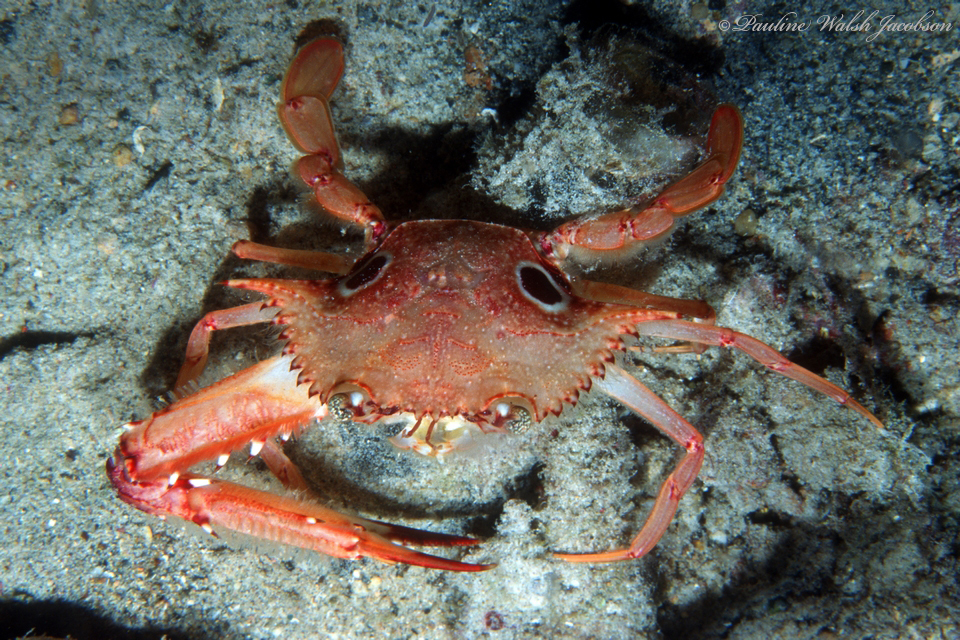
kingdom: Animalia
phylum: Arthropoda
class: Malacostraca
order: Decapoda
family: Portunidae
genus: Achelous
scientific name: Achelous sebae
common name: Ocellate swimming crab
